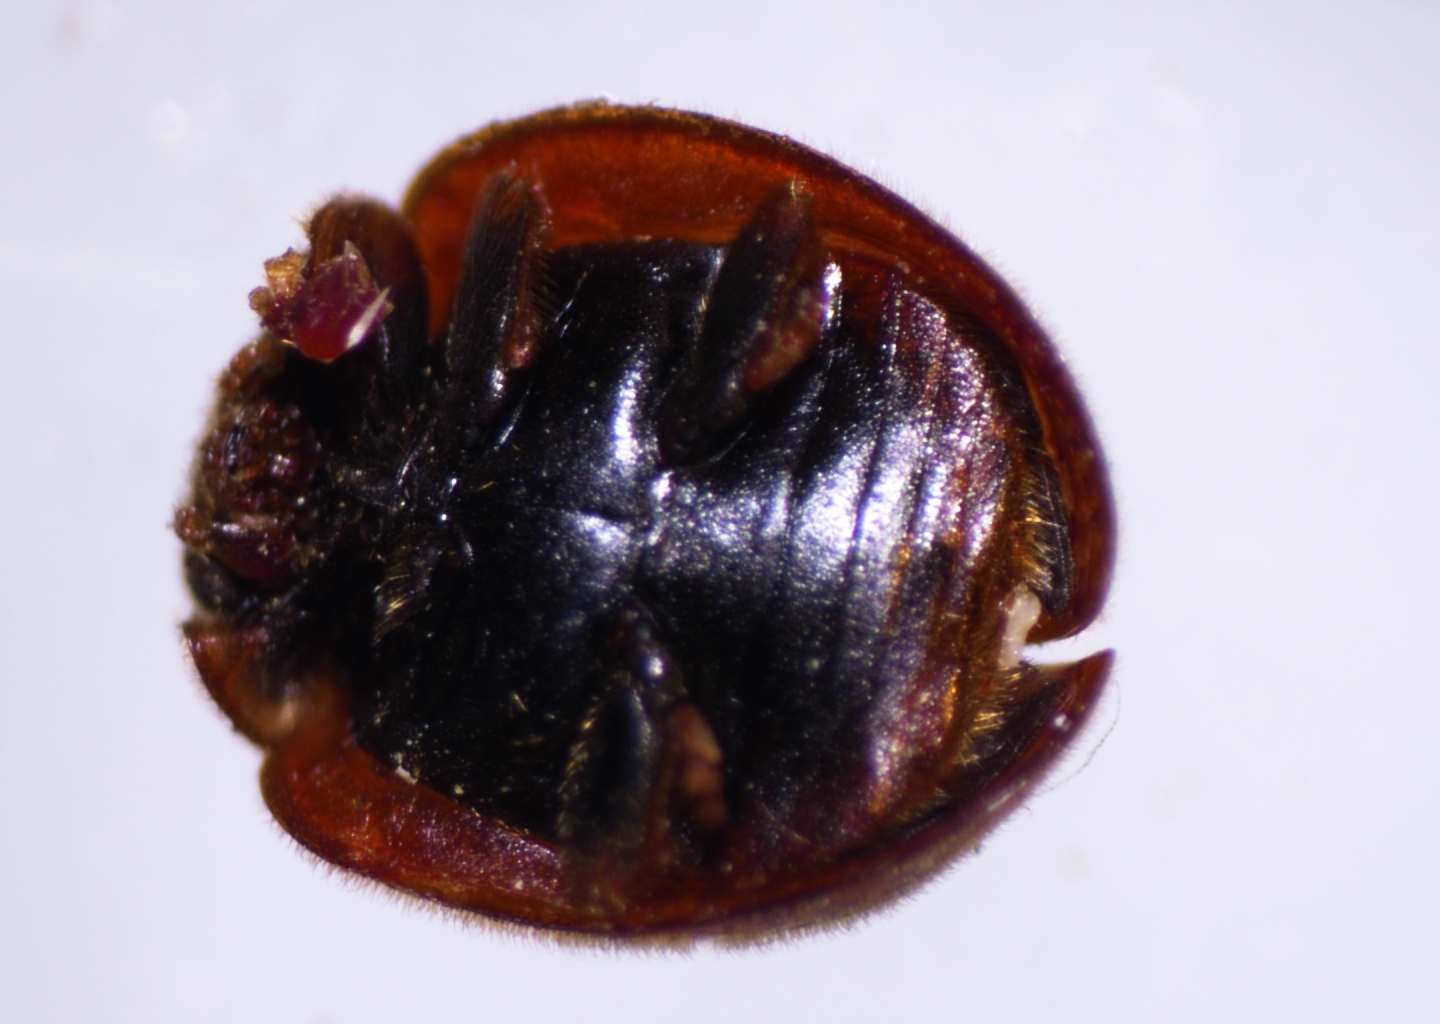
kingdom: Animalia
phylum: Arthropoda
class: Insecta
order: Coleoptera
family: Coccinellidae
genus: Novius
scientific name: Novius pumilus
